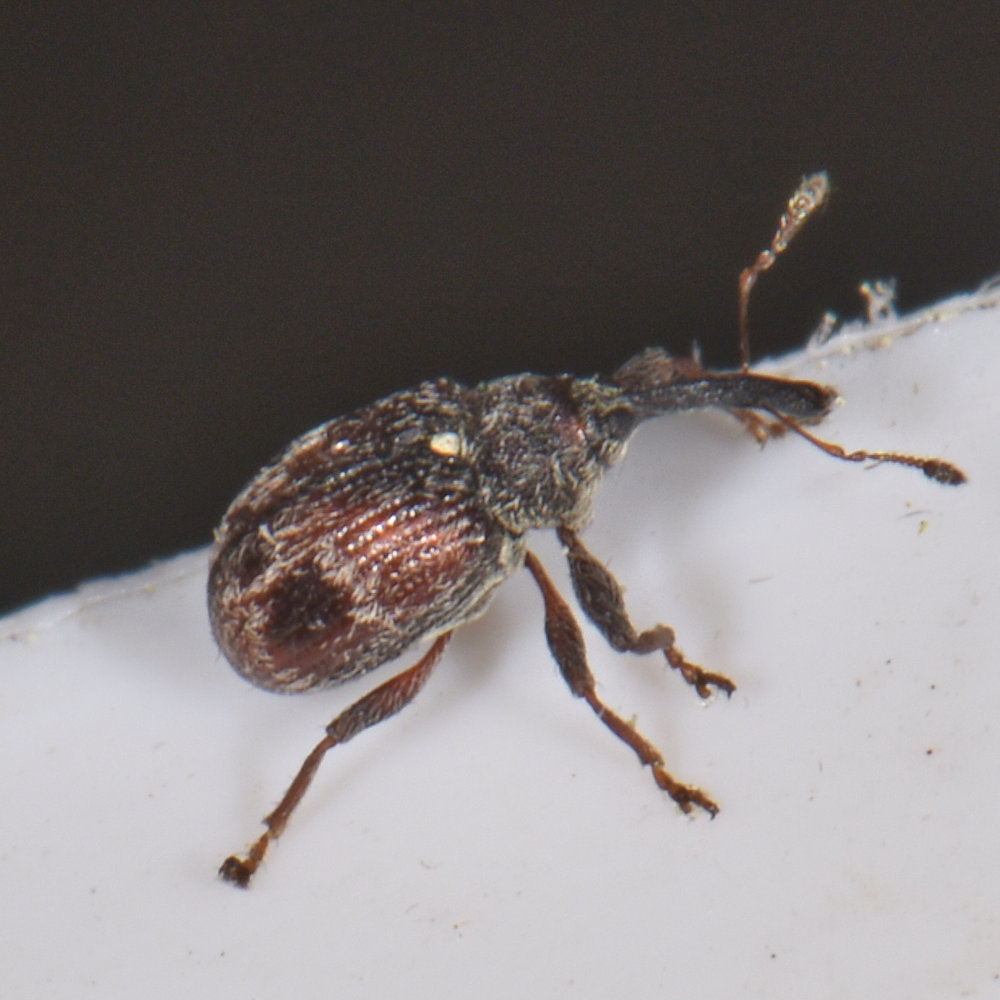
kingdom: Animalia
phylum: Arthropoda
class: Insecta
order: Coleoptera
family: Curculionidae
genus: Anthonomus
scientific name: Anthonomus signatus
